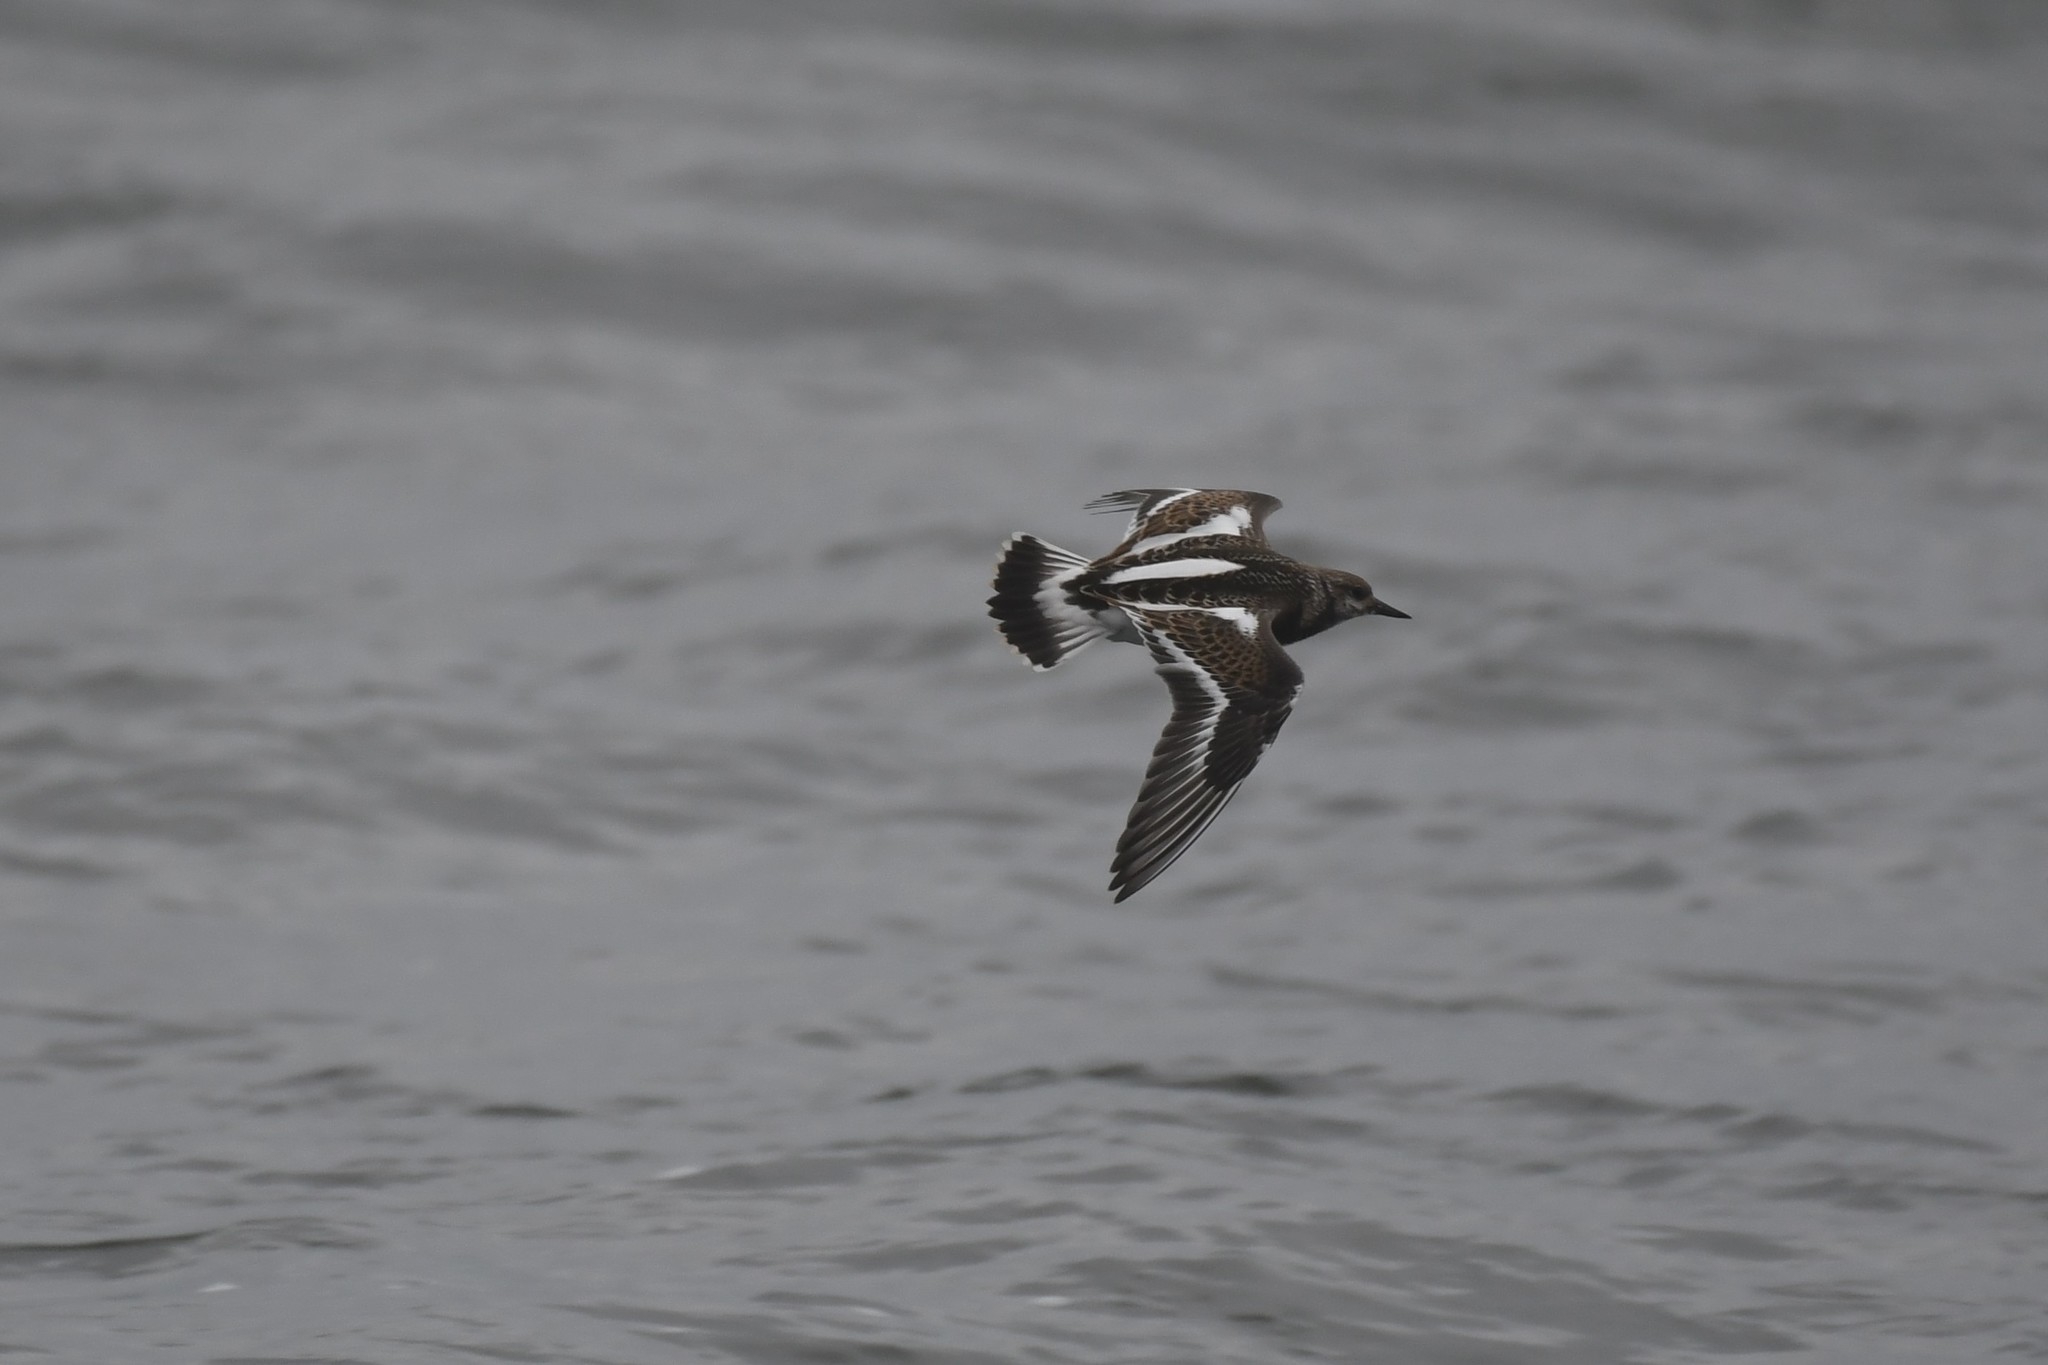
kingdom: Animalia
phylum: Chordata
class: Aves
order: Charadriiformes
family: Scolopacidae
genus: Arenaria
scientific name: Arenaria interpres
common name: Ruddy turnstone
